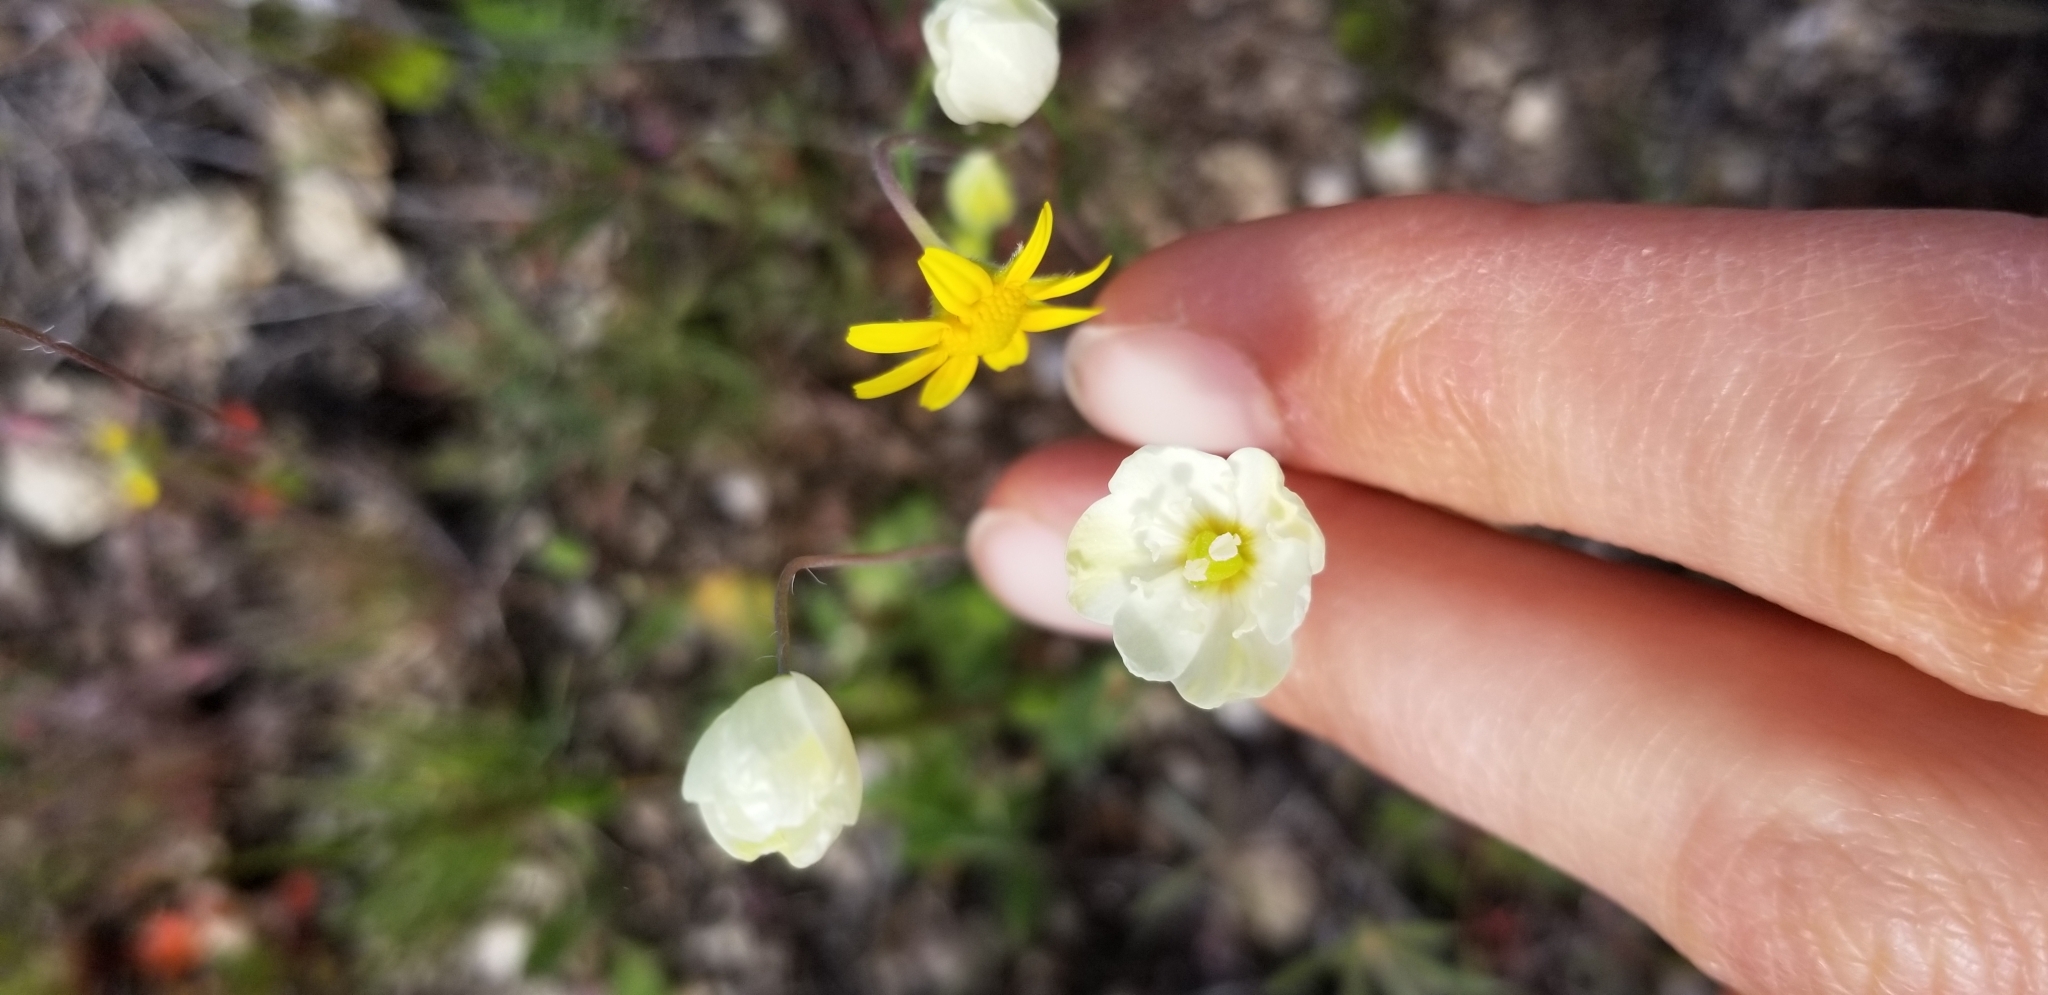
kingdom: Plantae
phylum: Tracheophyta
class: Magnoliopsida
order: Ranunculales
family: Papaveraceae
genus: Platystigma
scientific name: Platystigma lineare
